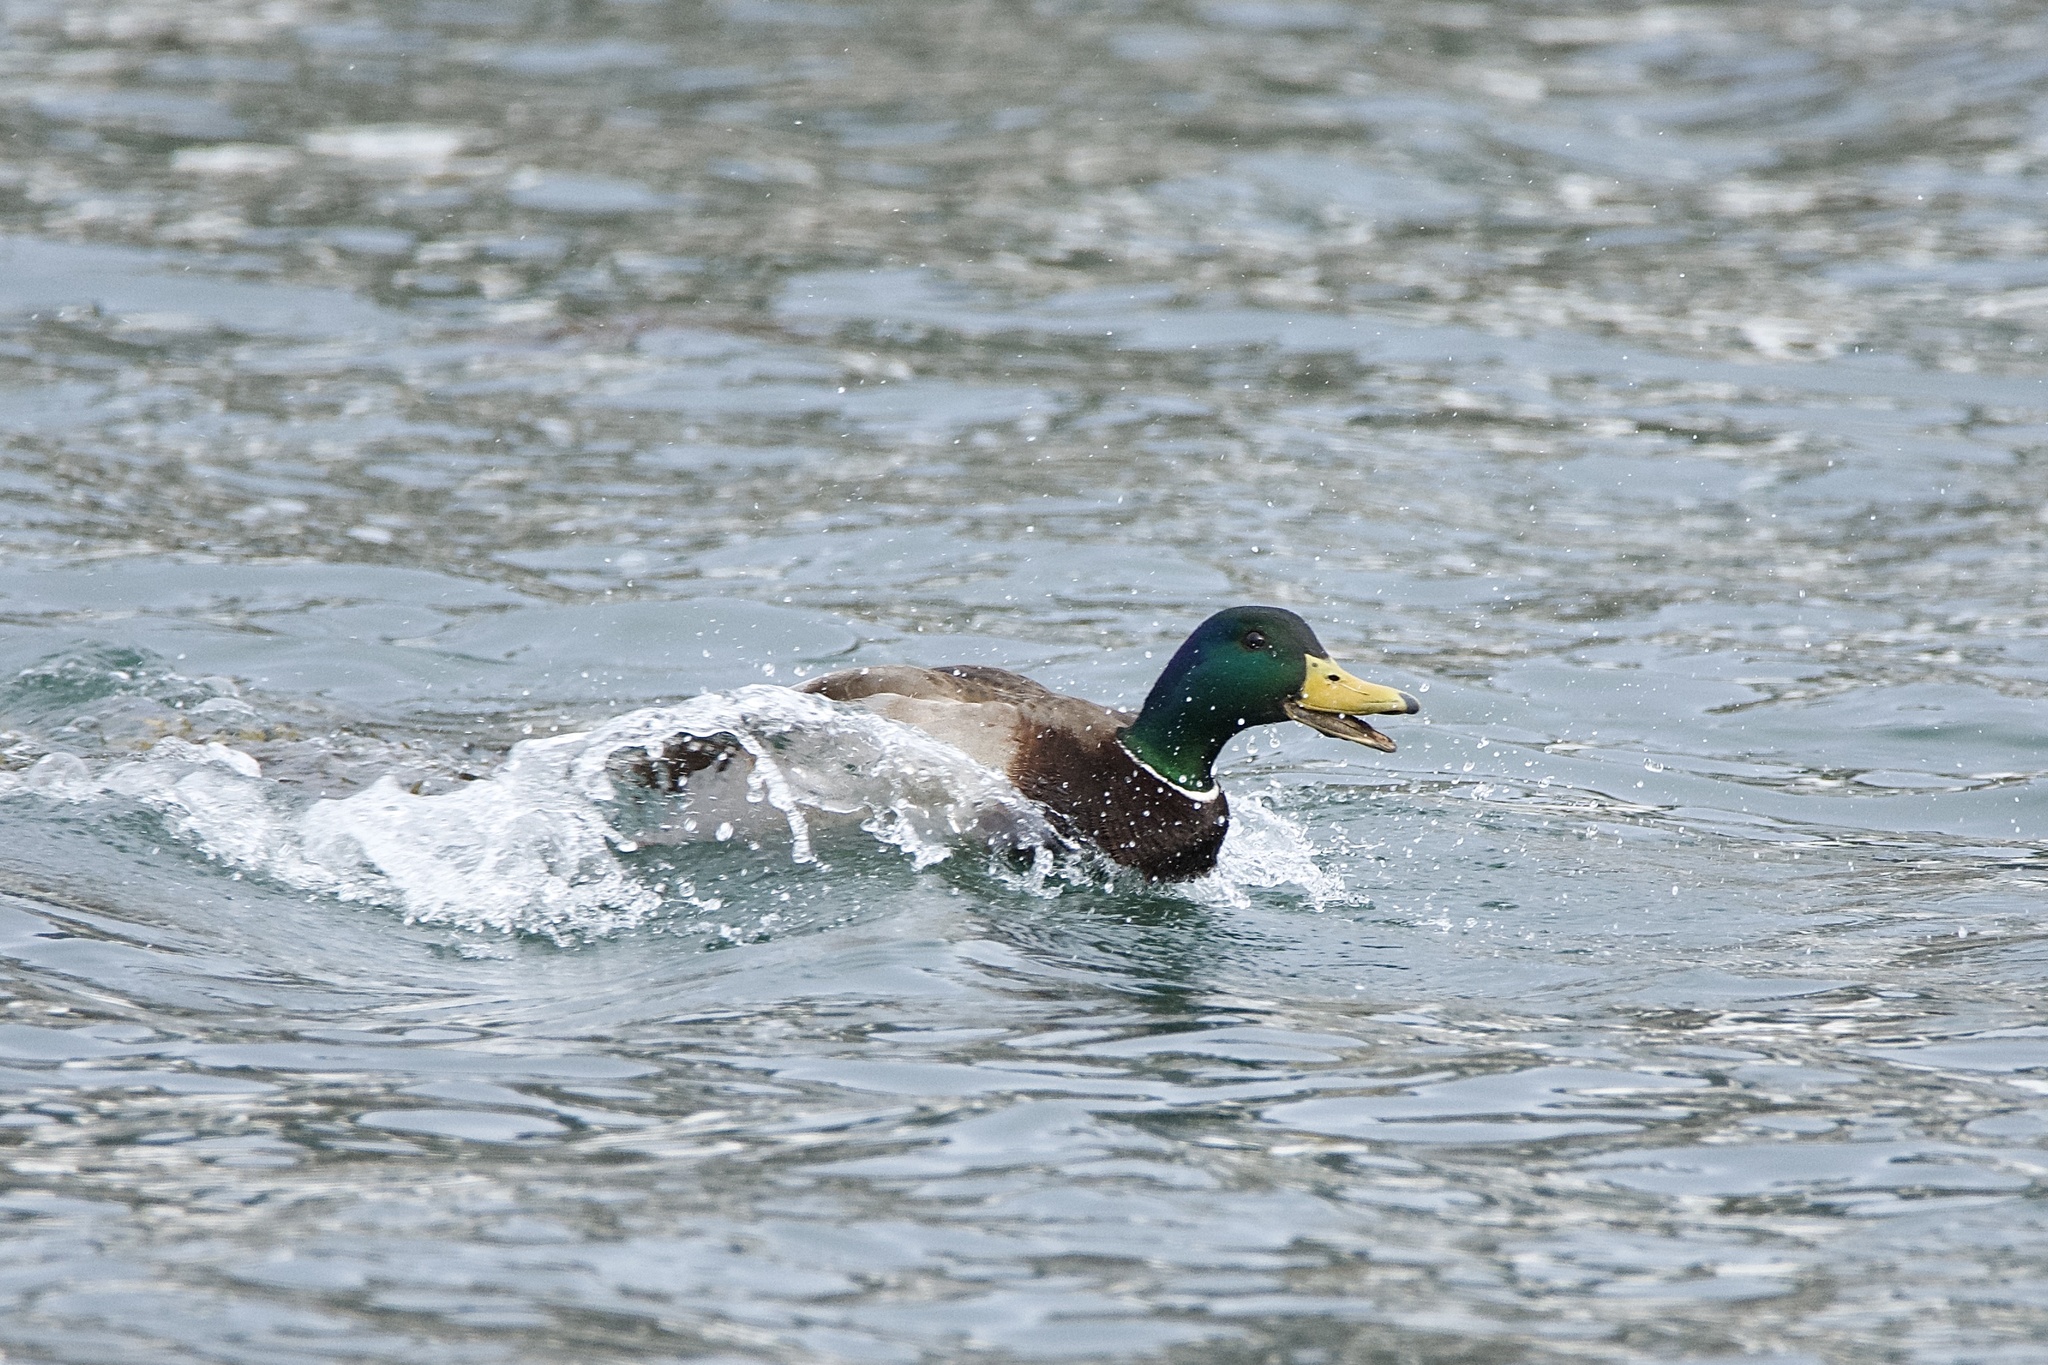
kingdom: Animalia
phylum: Chordata
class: Aves
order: Anseriformes
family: Anatidae
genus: Anas
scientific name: Anas platyrhynchos
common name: Mallard
